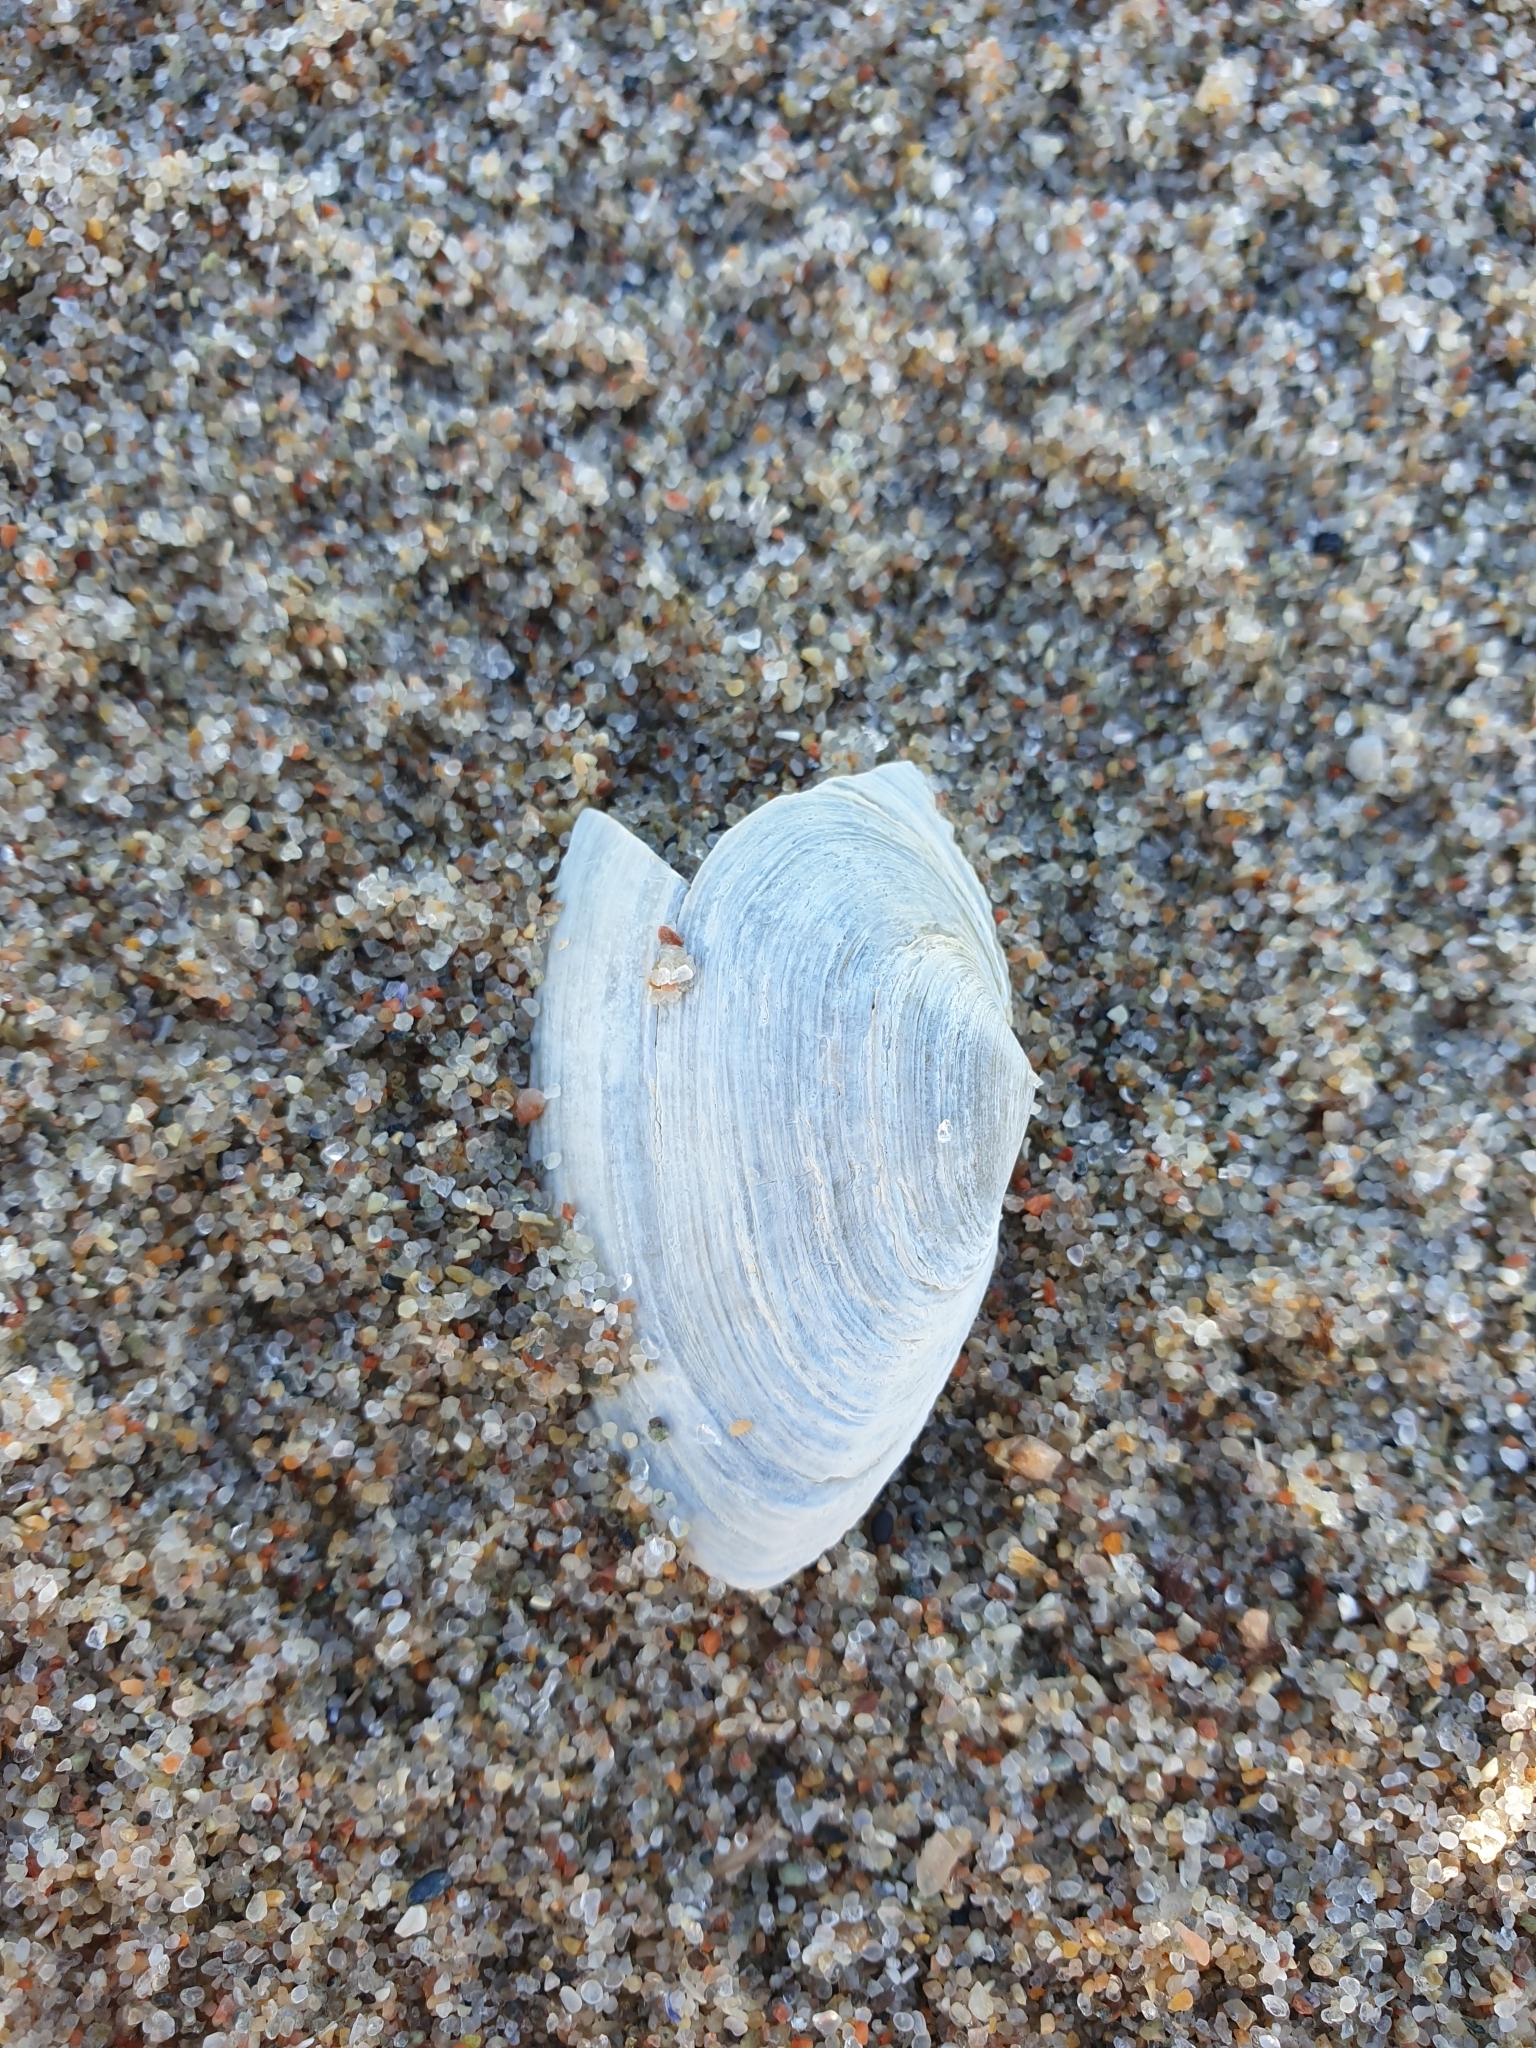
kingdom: Animalia
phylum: Mollusca
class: Bivalvia
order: Myida
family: Myidae
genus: Mya
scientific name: Mya arenaria
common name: Soft-shelled clam
